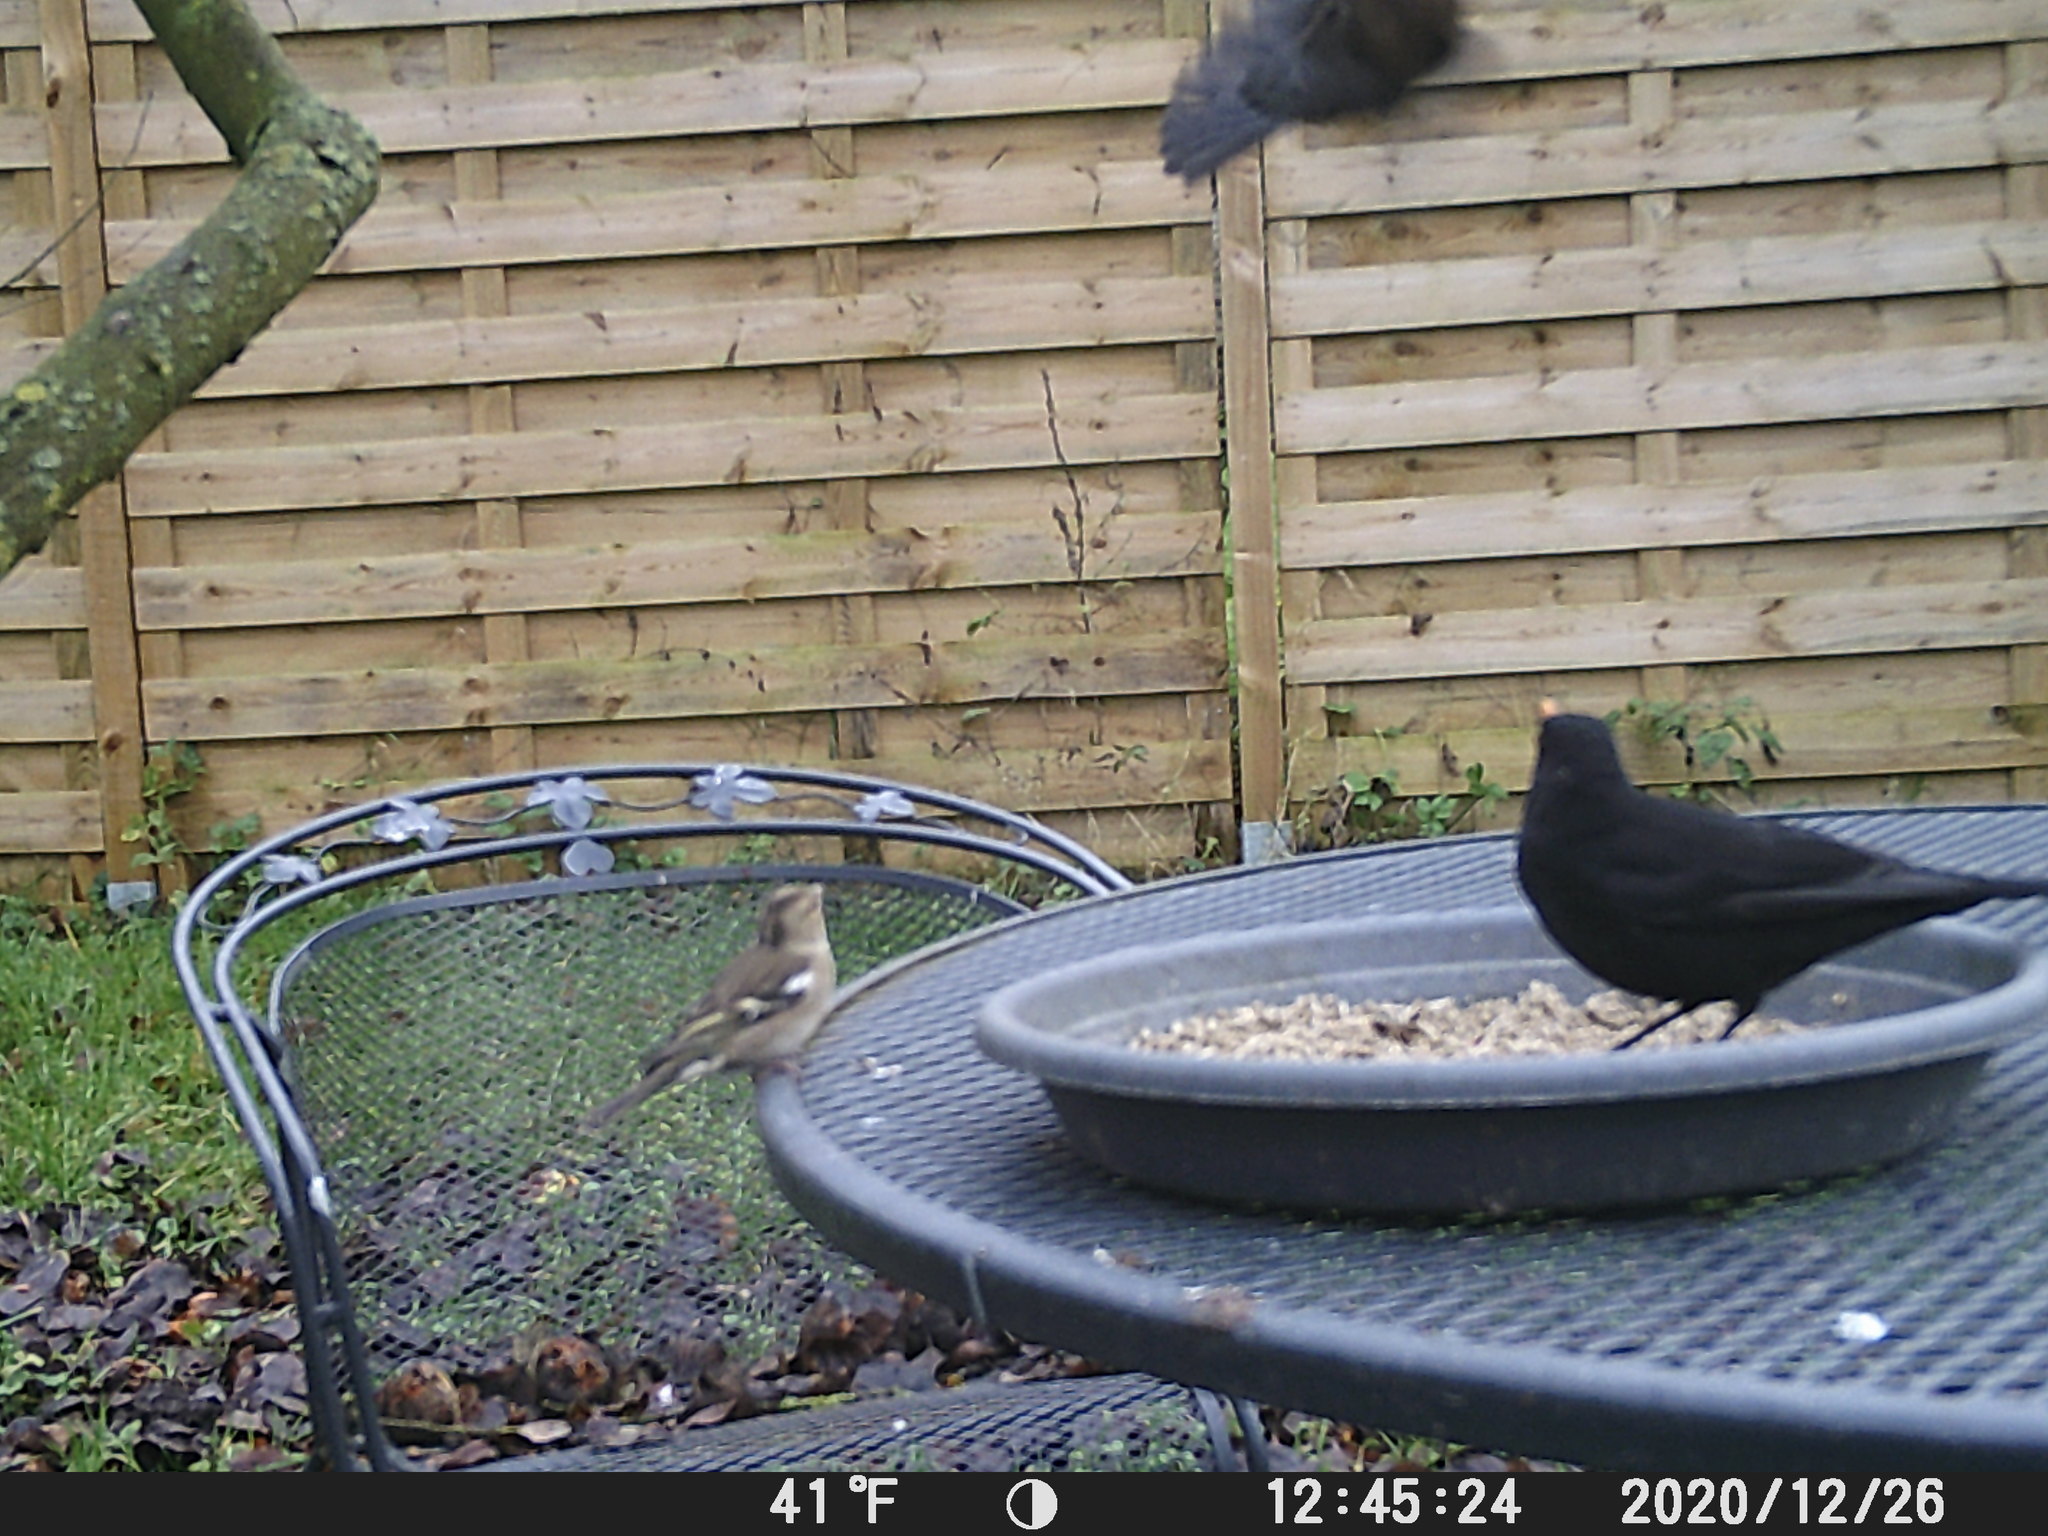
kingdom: Animalia
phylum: Chordata
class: Aves
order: Passeriformes
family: Fringillidae
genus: Fringilla
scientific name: Fringilla coelebs
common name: Common chaffinch
